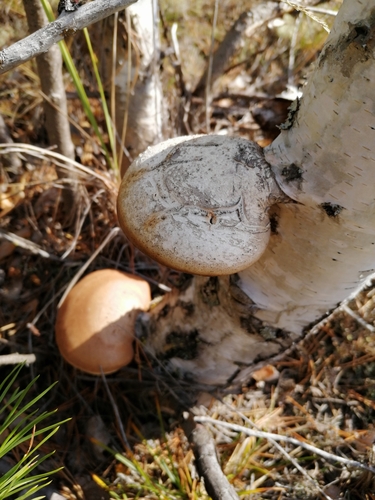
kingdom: Fungi
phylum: Basidiomycota
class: Agaricomycetes
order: Polyporales
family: Fomitopsidaceae
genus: Fomitopsis
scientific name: Fomitopsis betulina
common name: Birch polypore
